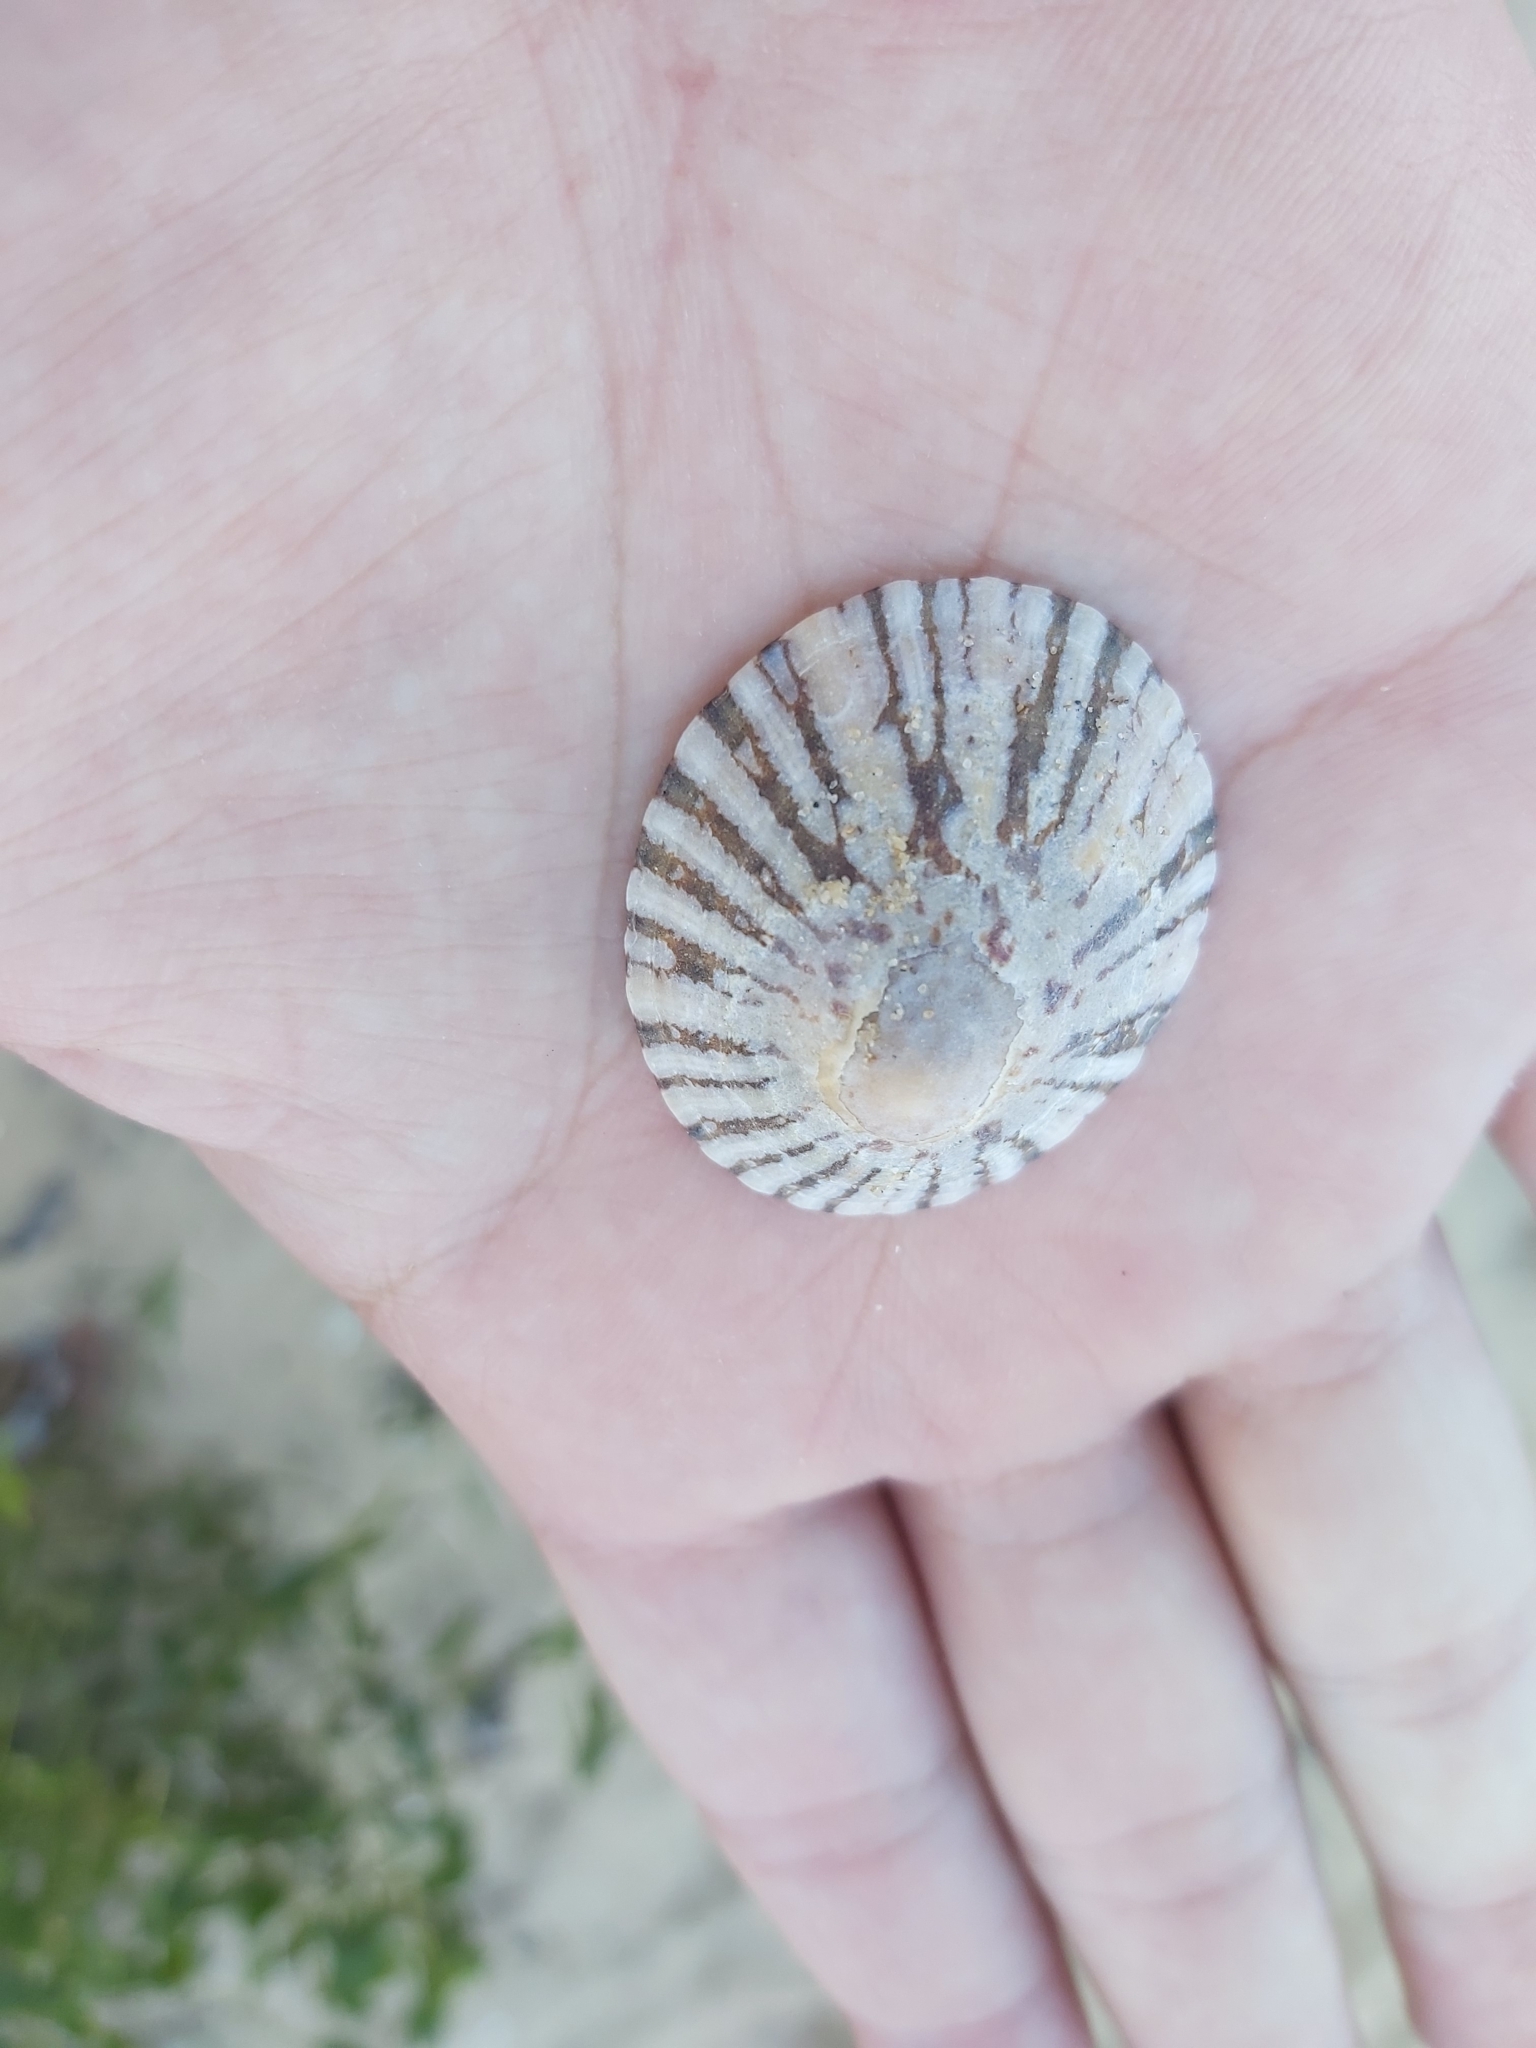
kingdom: Animalia
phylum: Mollusca
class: Gastropoda
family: Nacellidae
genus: Cellana
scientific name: Cellana tramoserica
